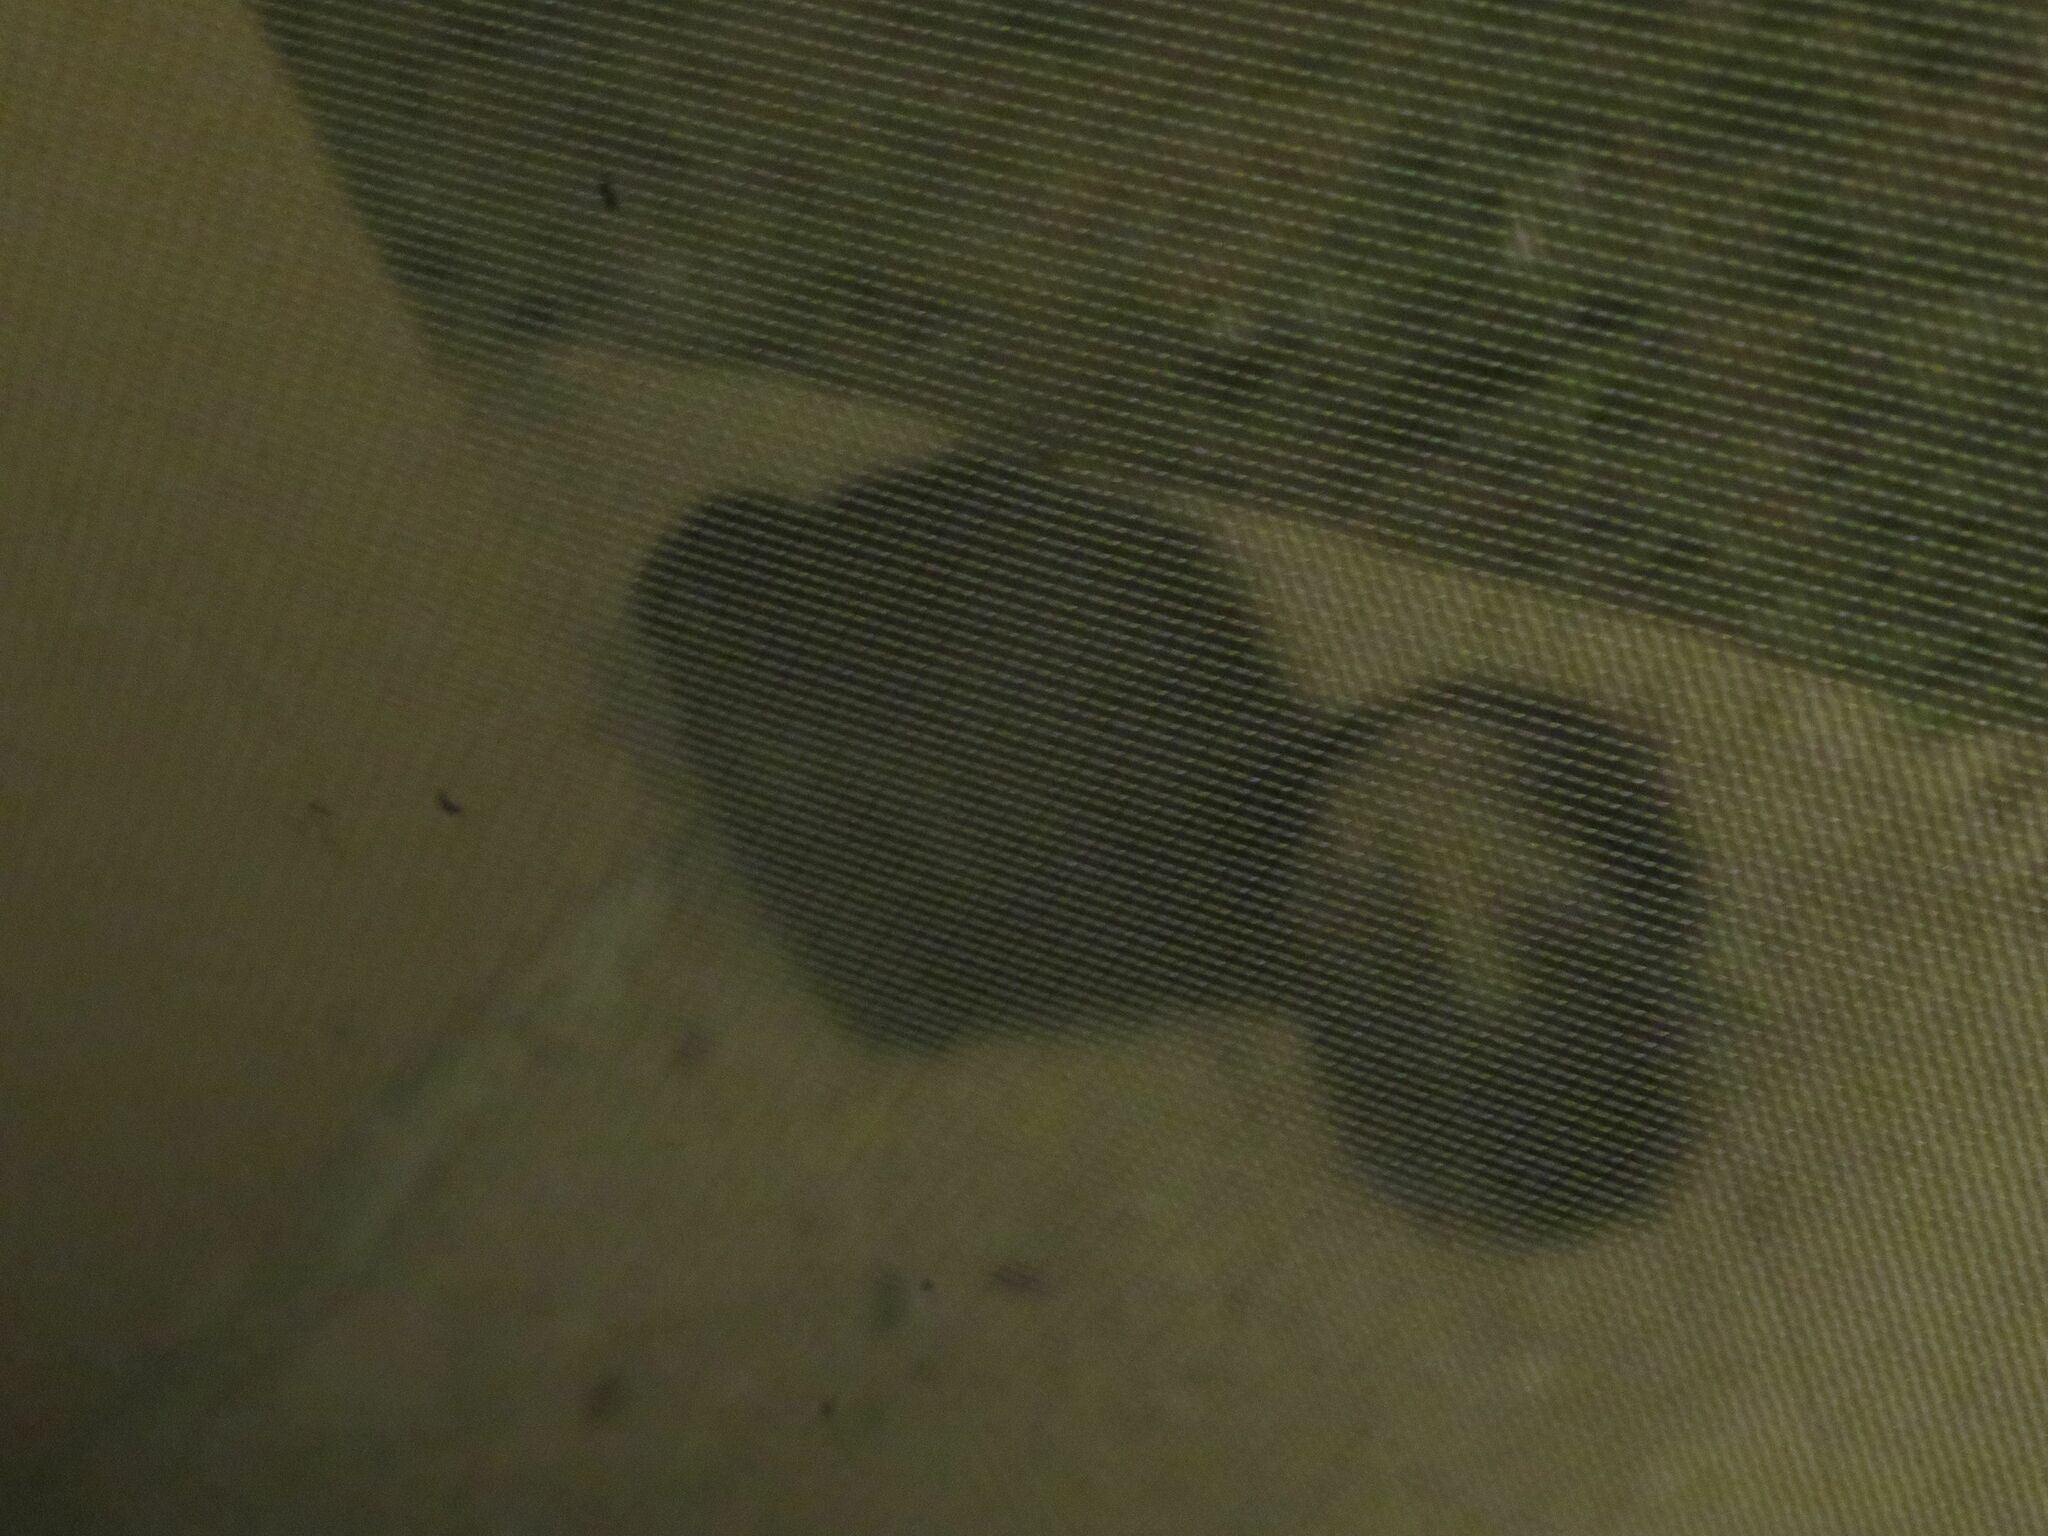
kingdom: Animalia
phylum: Chordata
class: Mammalia
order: Carnivora
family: Mephitidae
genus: Conepatus
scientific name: Conepatus chinga
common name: Molina's hog-nosed skunk
